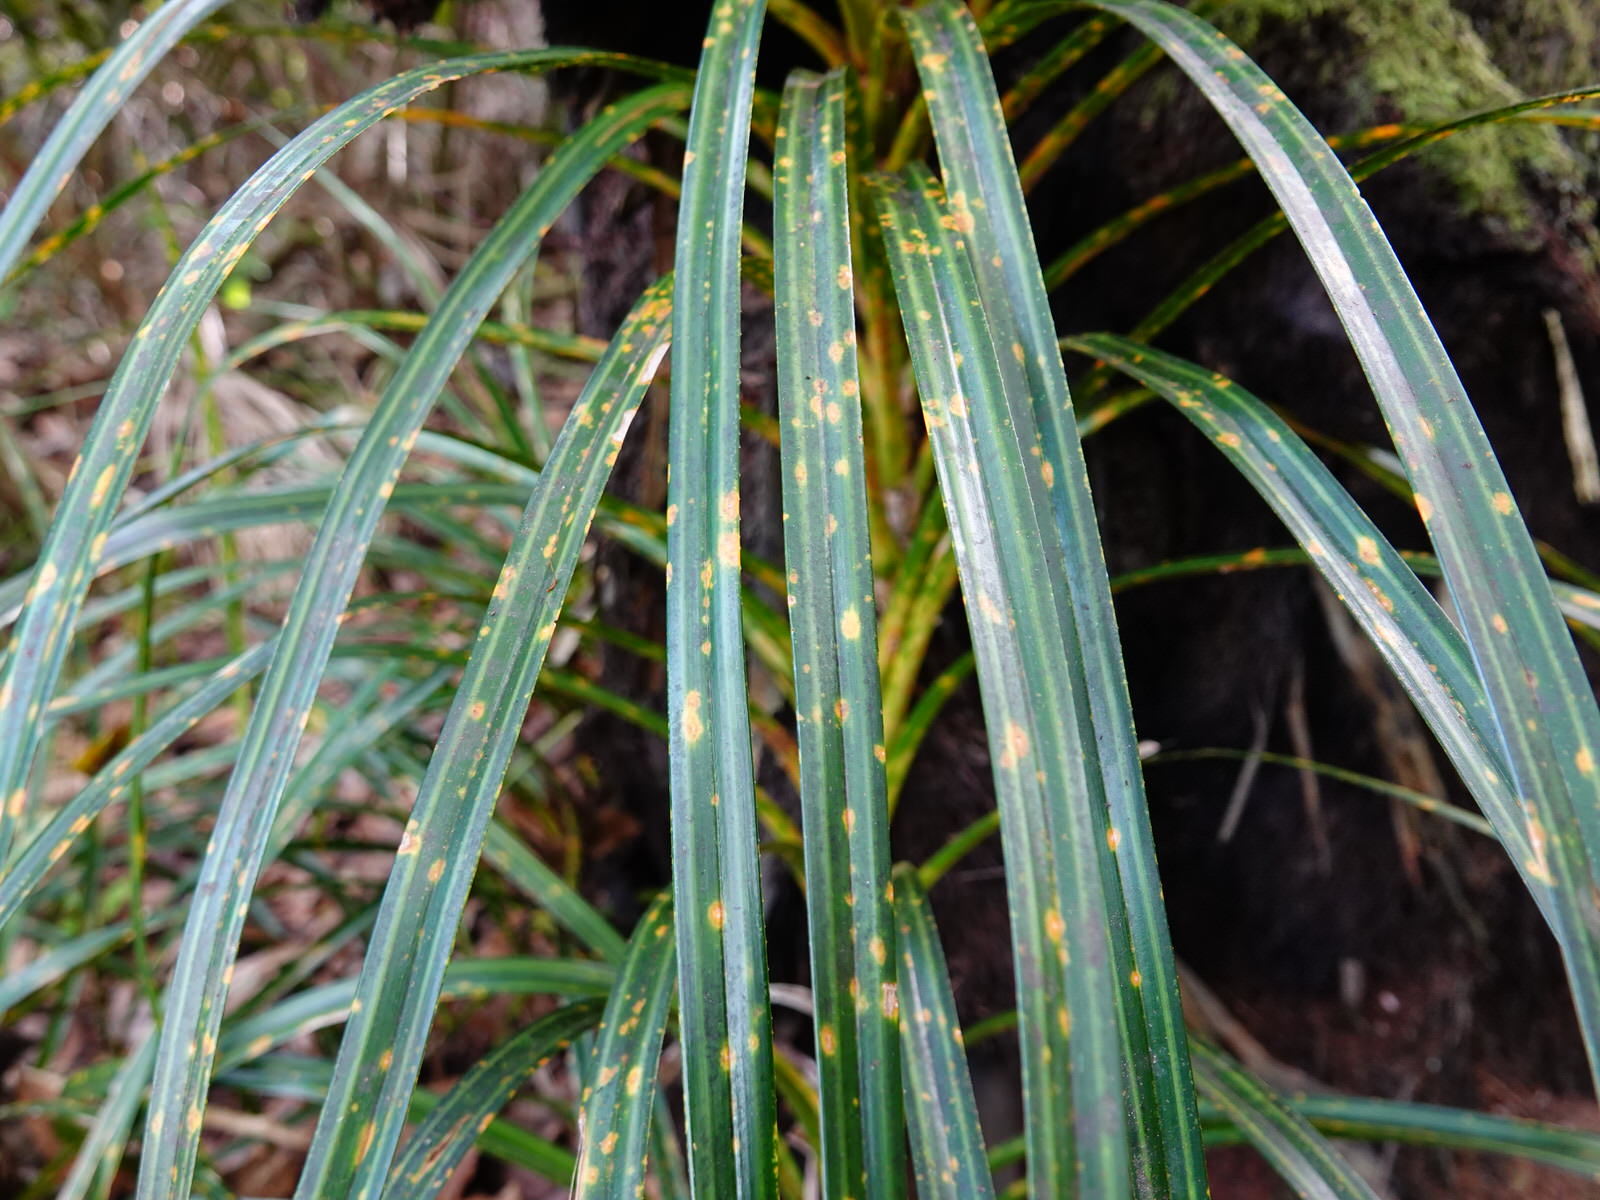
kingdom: Plantae
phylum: Tracheophyta
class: Liliopsida
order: Pandanales
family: Pandanaceae
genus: Freycinetia
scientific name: Freycinetia banksii
